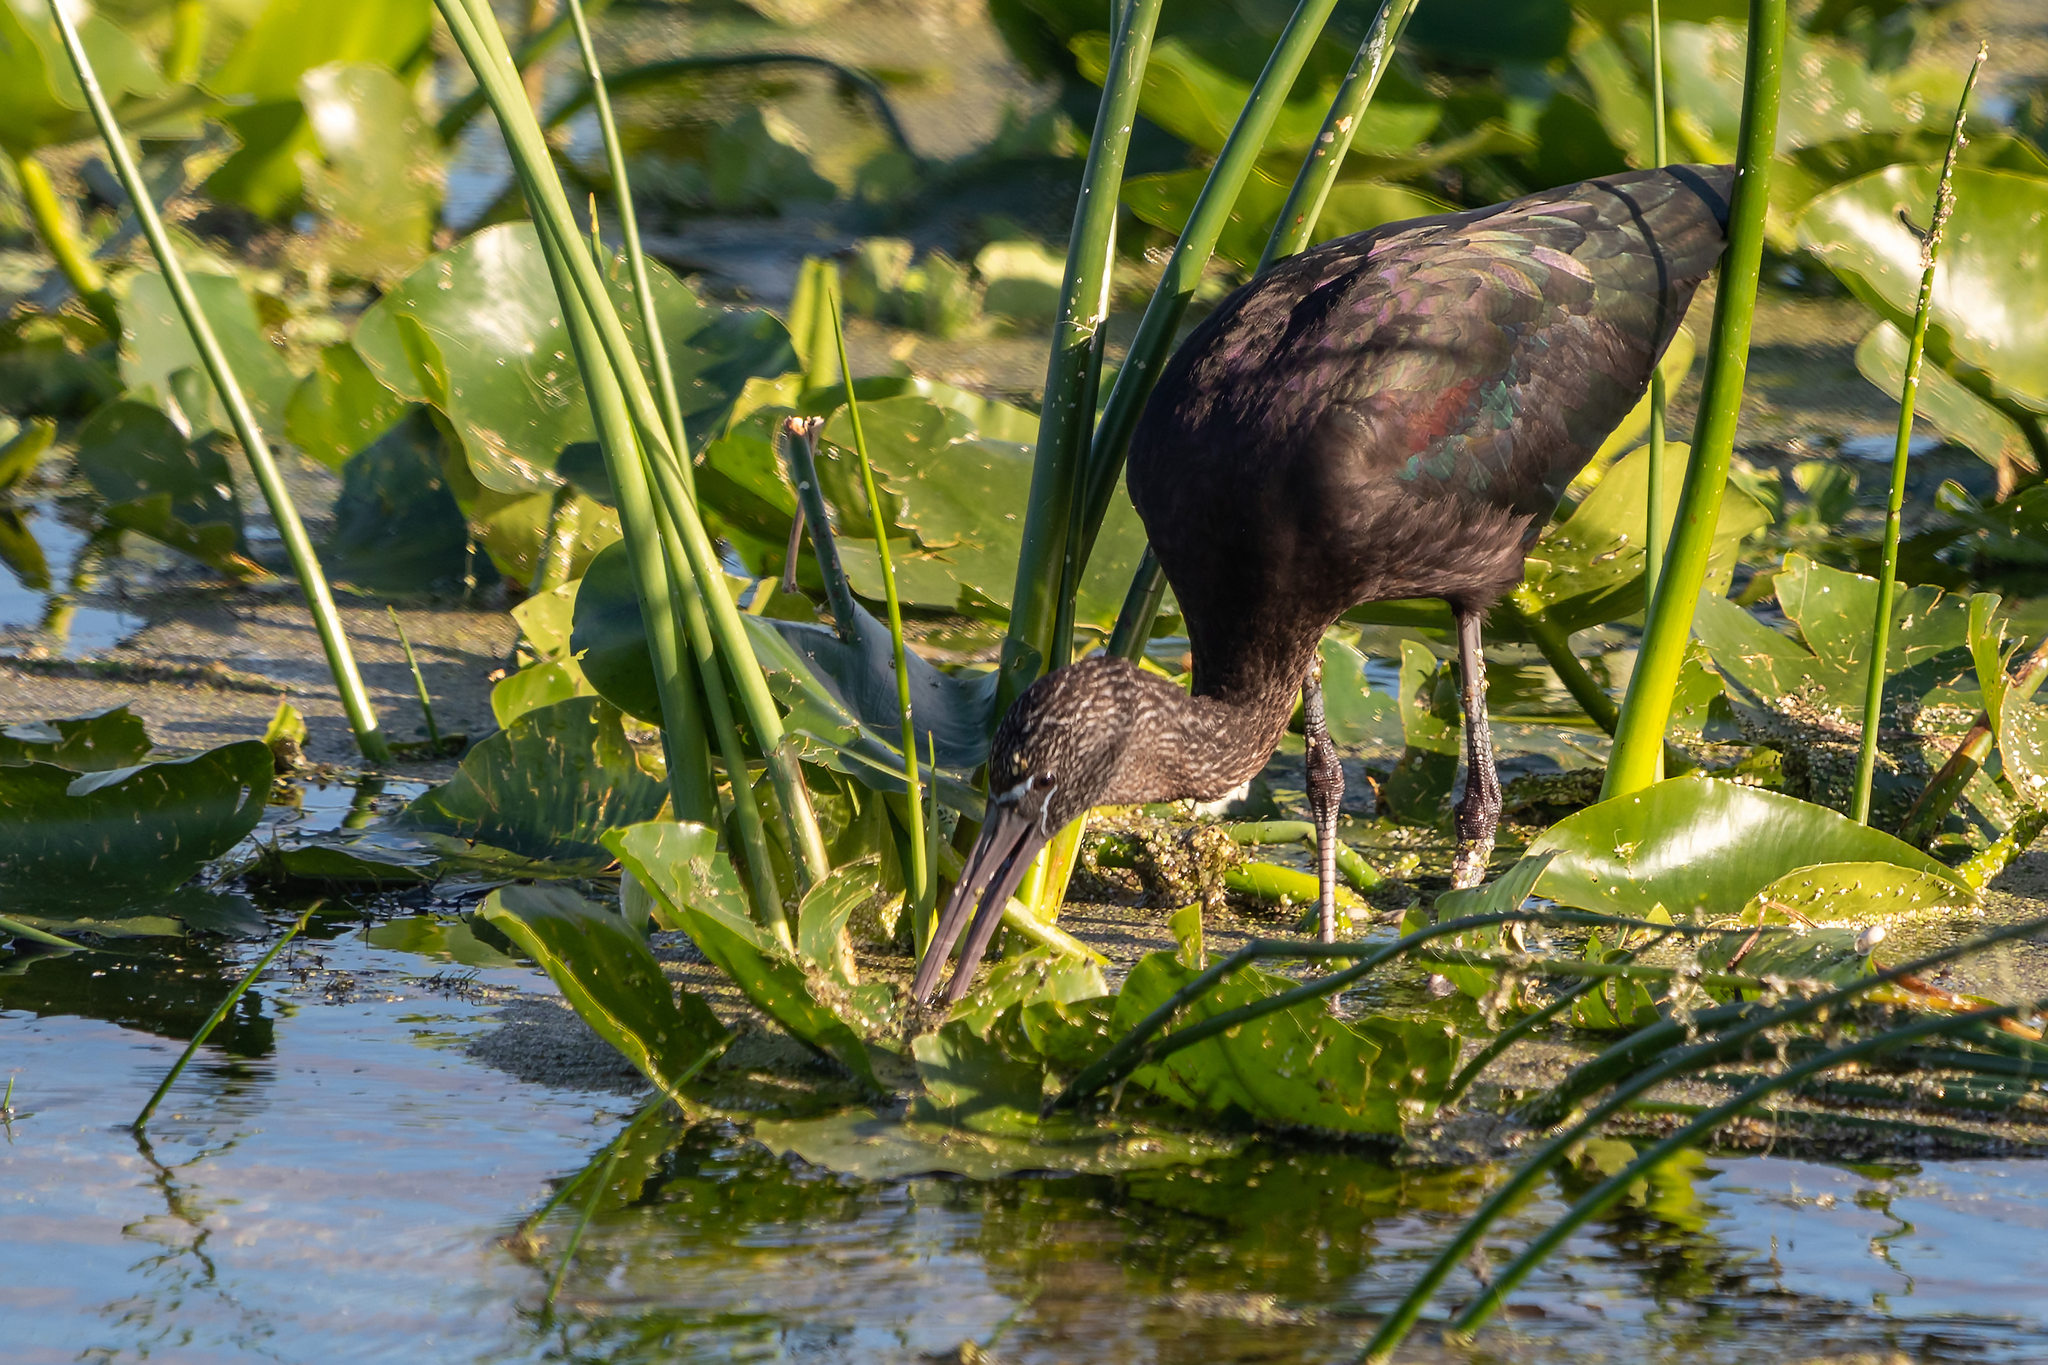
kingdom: Animalia
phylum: Chordata
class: Aves
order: Pelecaniformes
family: Threskiornithidae
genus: Plegadis
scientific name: Plegadis falcinellus
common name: Glossy ibis
